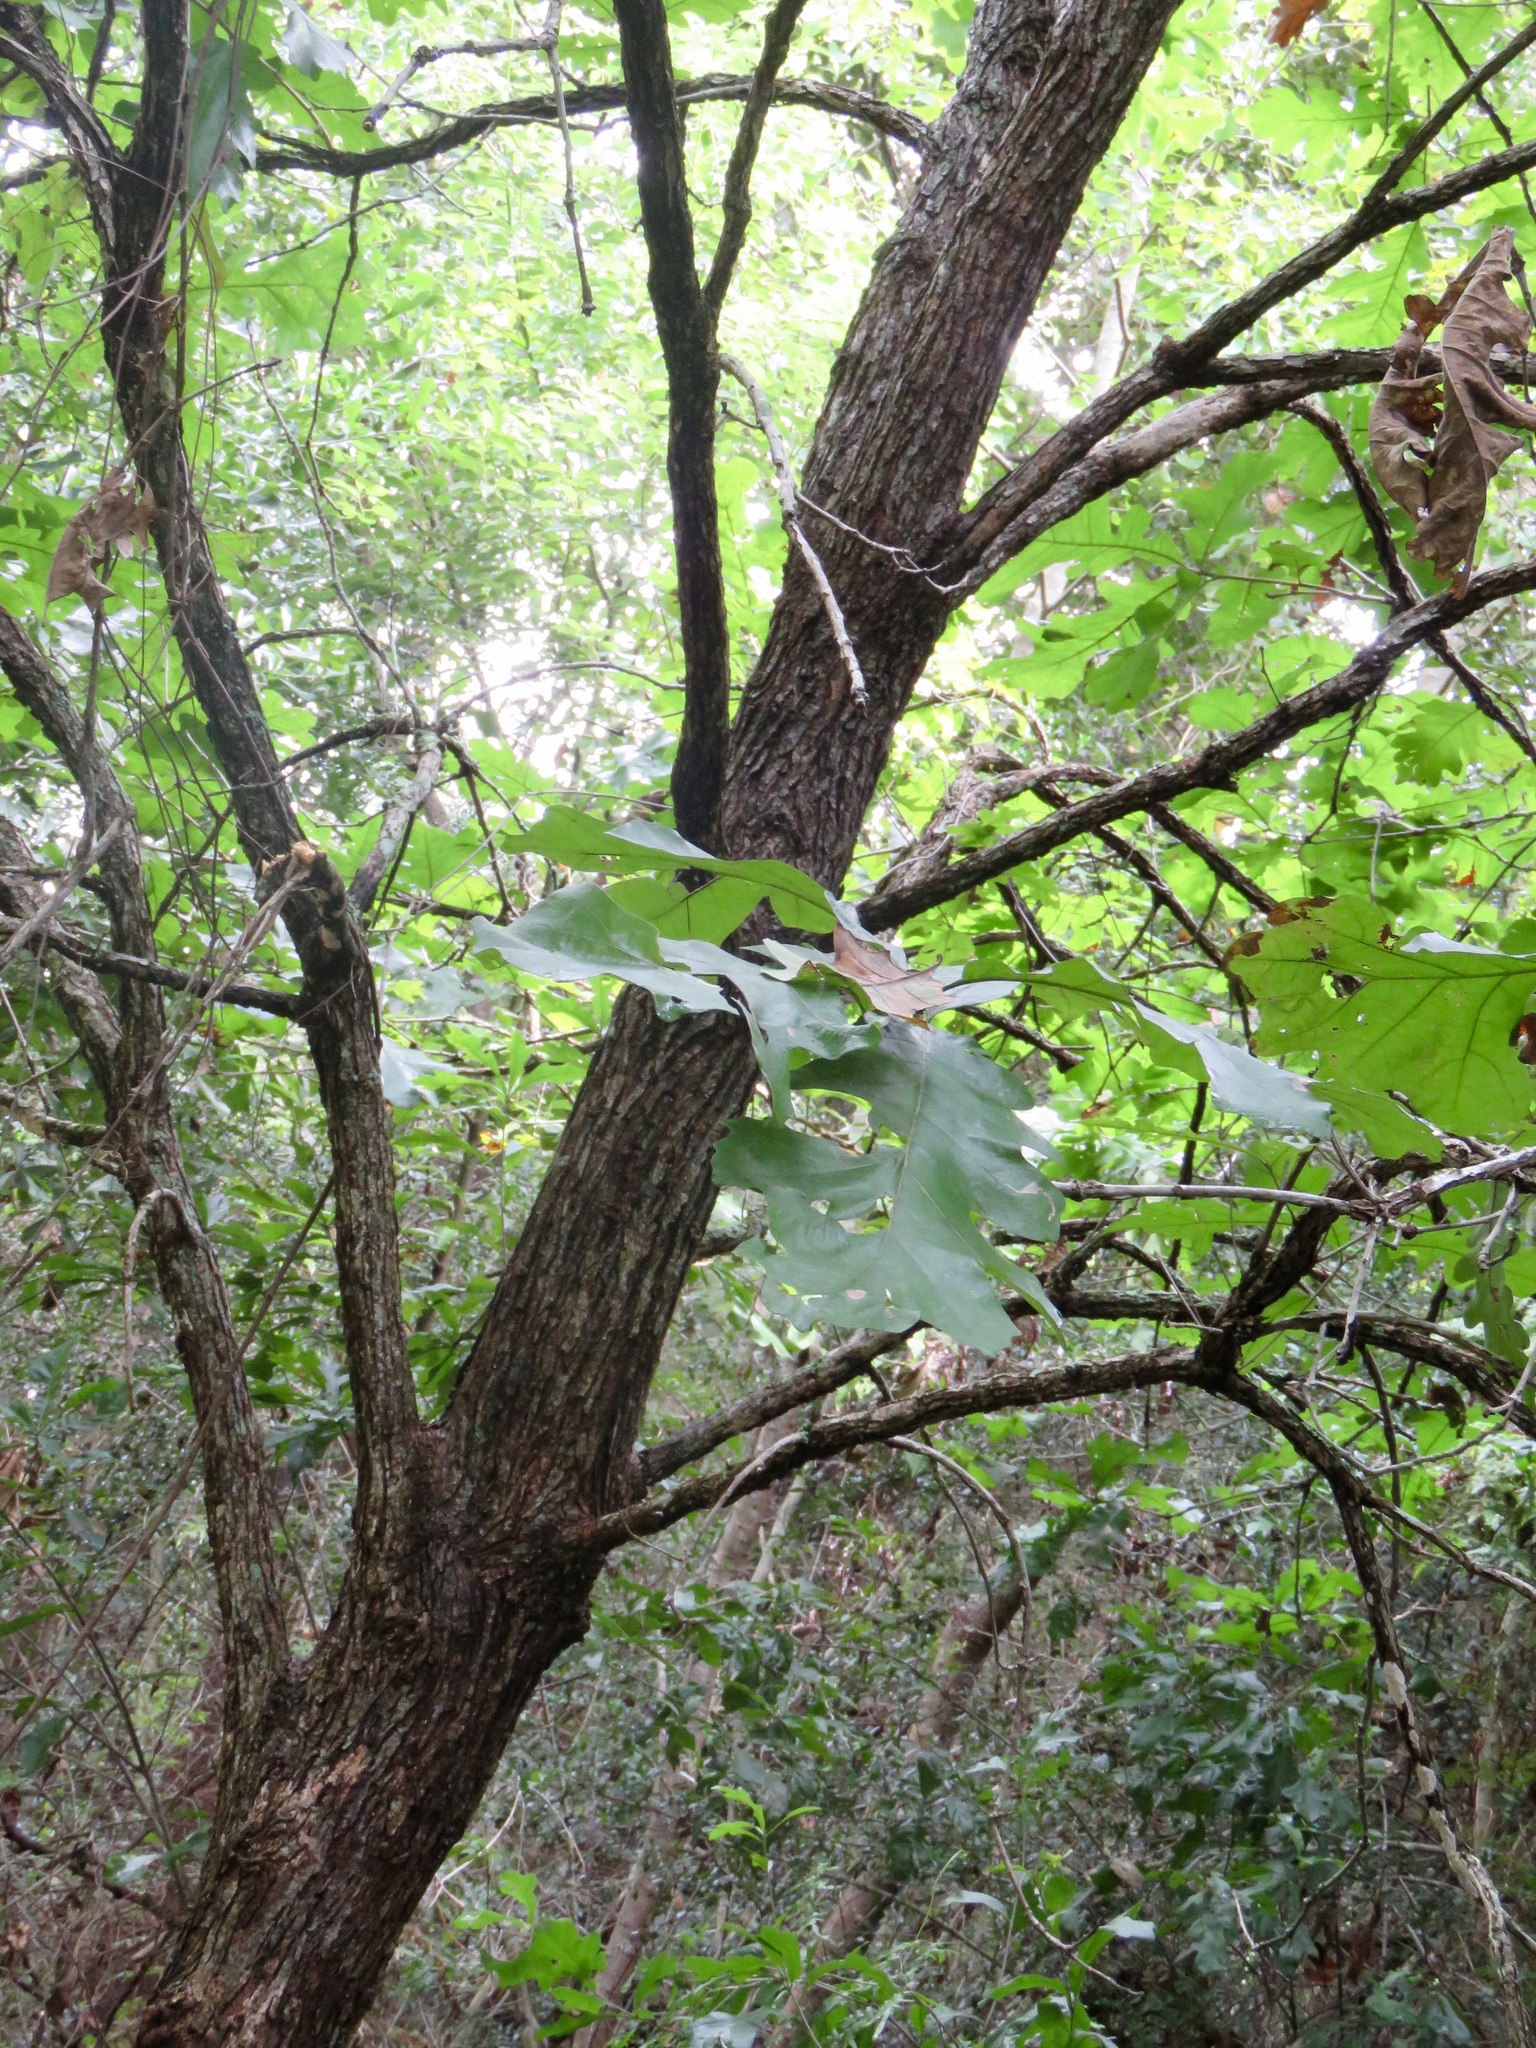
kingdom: Plantae
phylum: Tracheophyta
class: Magnoliopsida
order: Fagales
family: Fagaceae
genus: Quercus
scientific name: Quercus macrocarpa
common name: Bur oak
